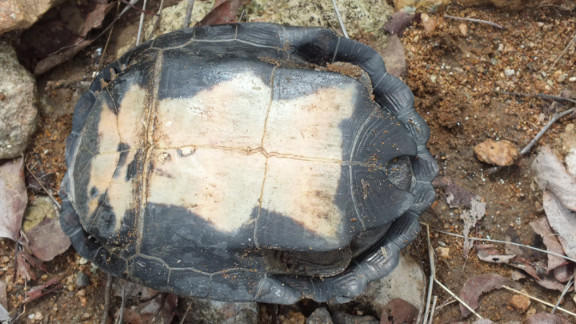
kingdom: Animalia
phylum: Chordata
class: Testudines
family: Pelomedusidae
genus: Pelusios
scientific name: Pelusios sinuatus
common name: Serrated hinged terrapin
